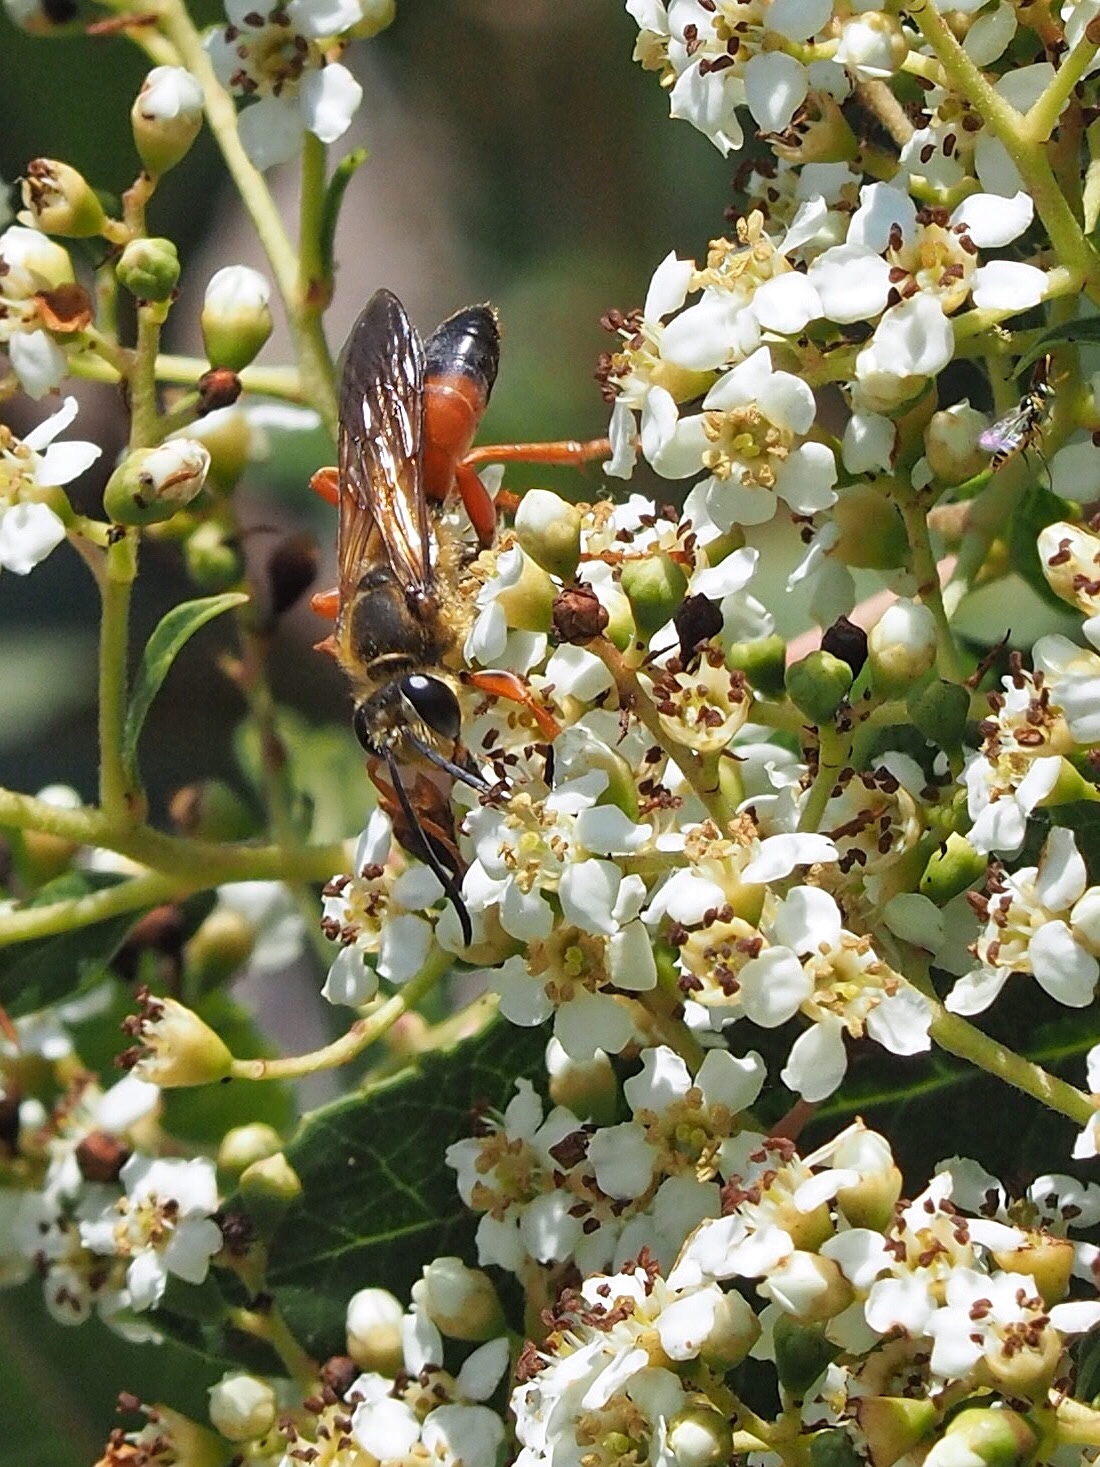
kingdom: Animalia
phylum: Arthropoda
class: Insecta
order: Hymenoptera
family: Sphecidae
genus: Sphex
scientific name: Sphex ichneumoneus
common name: Great golden digger wasp
